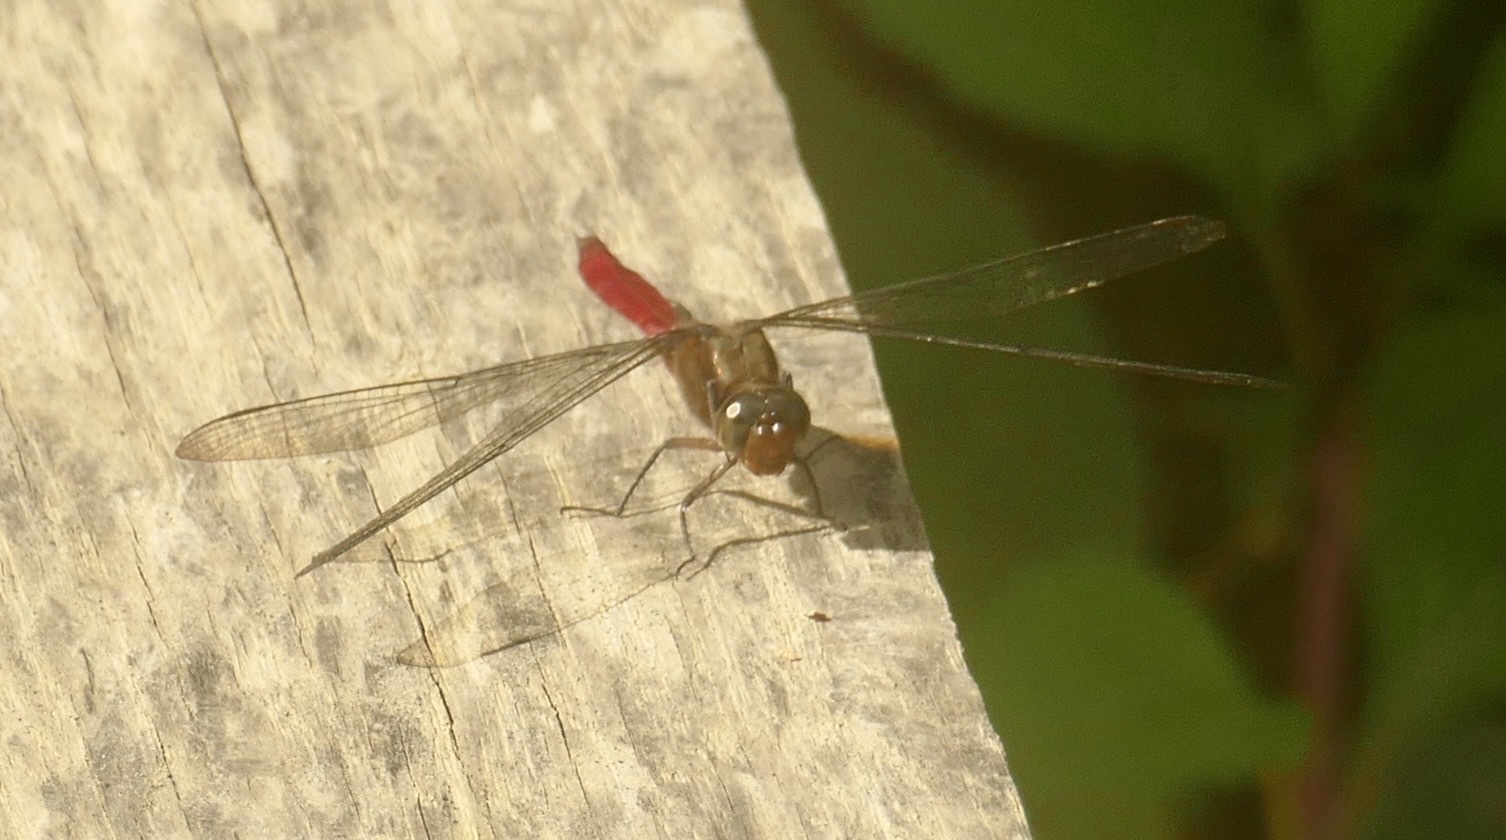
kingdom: Animalia
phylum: Arthropoda
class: Insecta
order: Odonata
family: Libellulidae
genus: Orthetrum
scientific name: Orthetrum villosovittatum
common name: Firery skimmer
